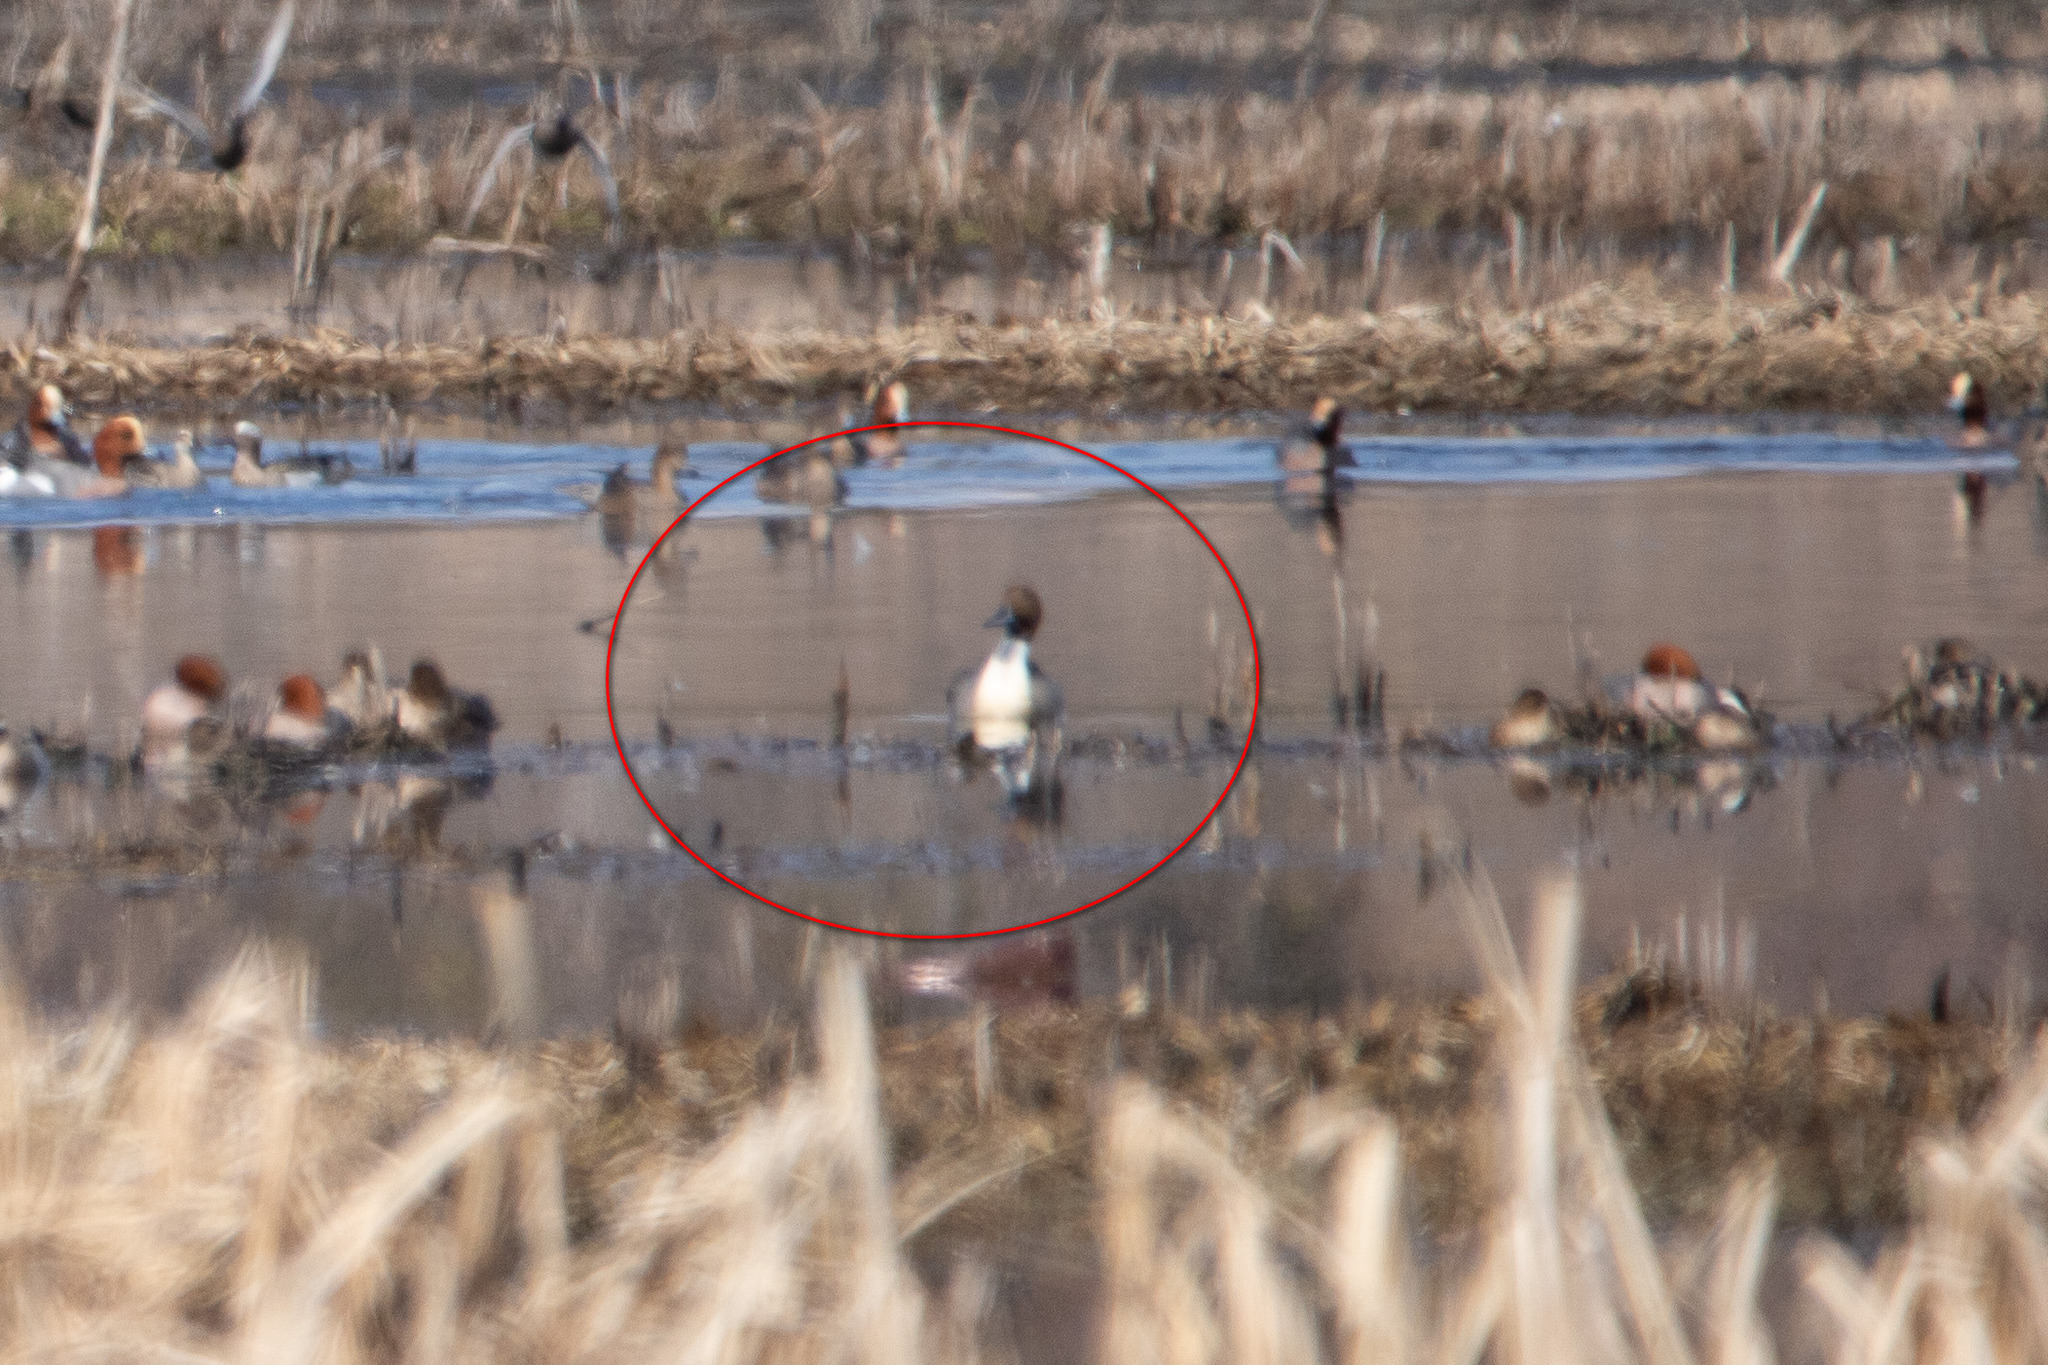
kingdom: Animalia
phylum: Chordata
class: Aves
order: Anseriformes
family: Anatidae
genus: Anas
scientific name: Anas acuta
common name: Northern pintail
